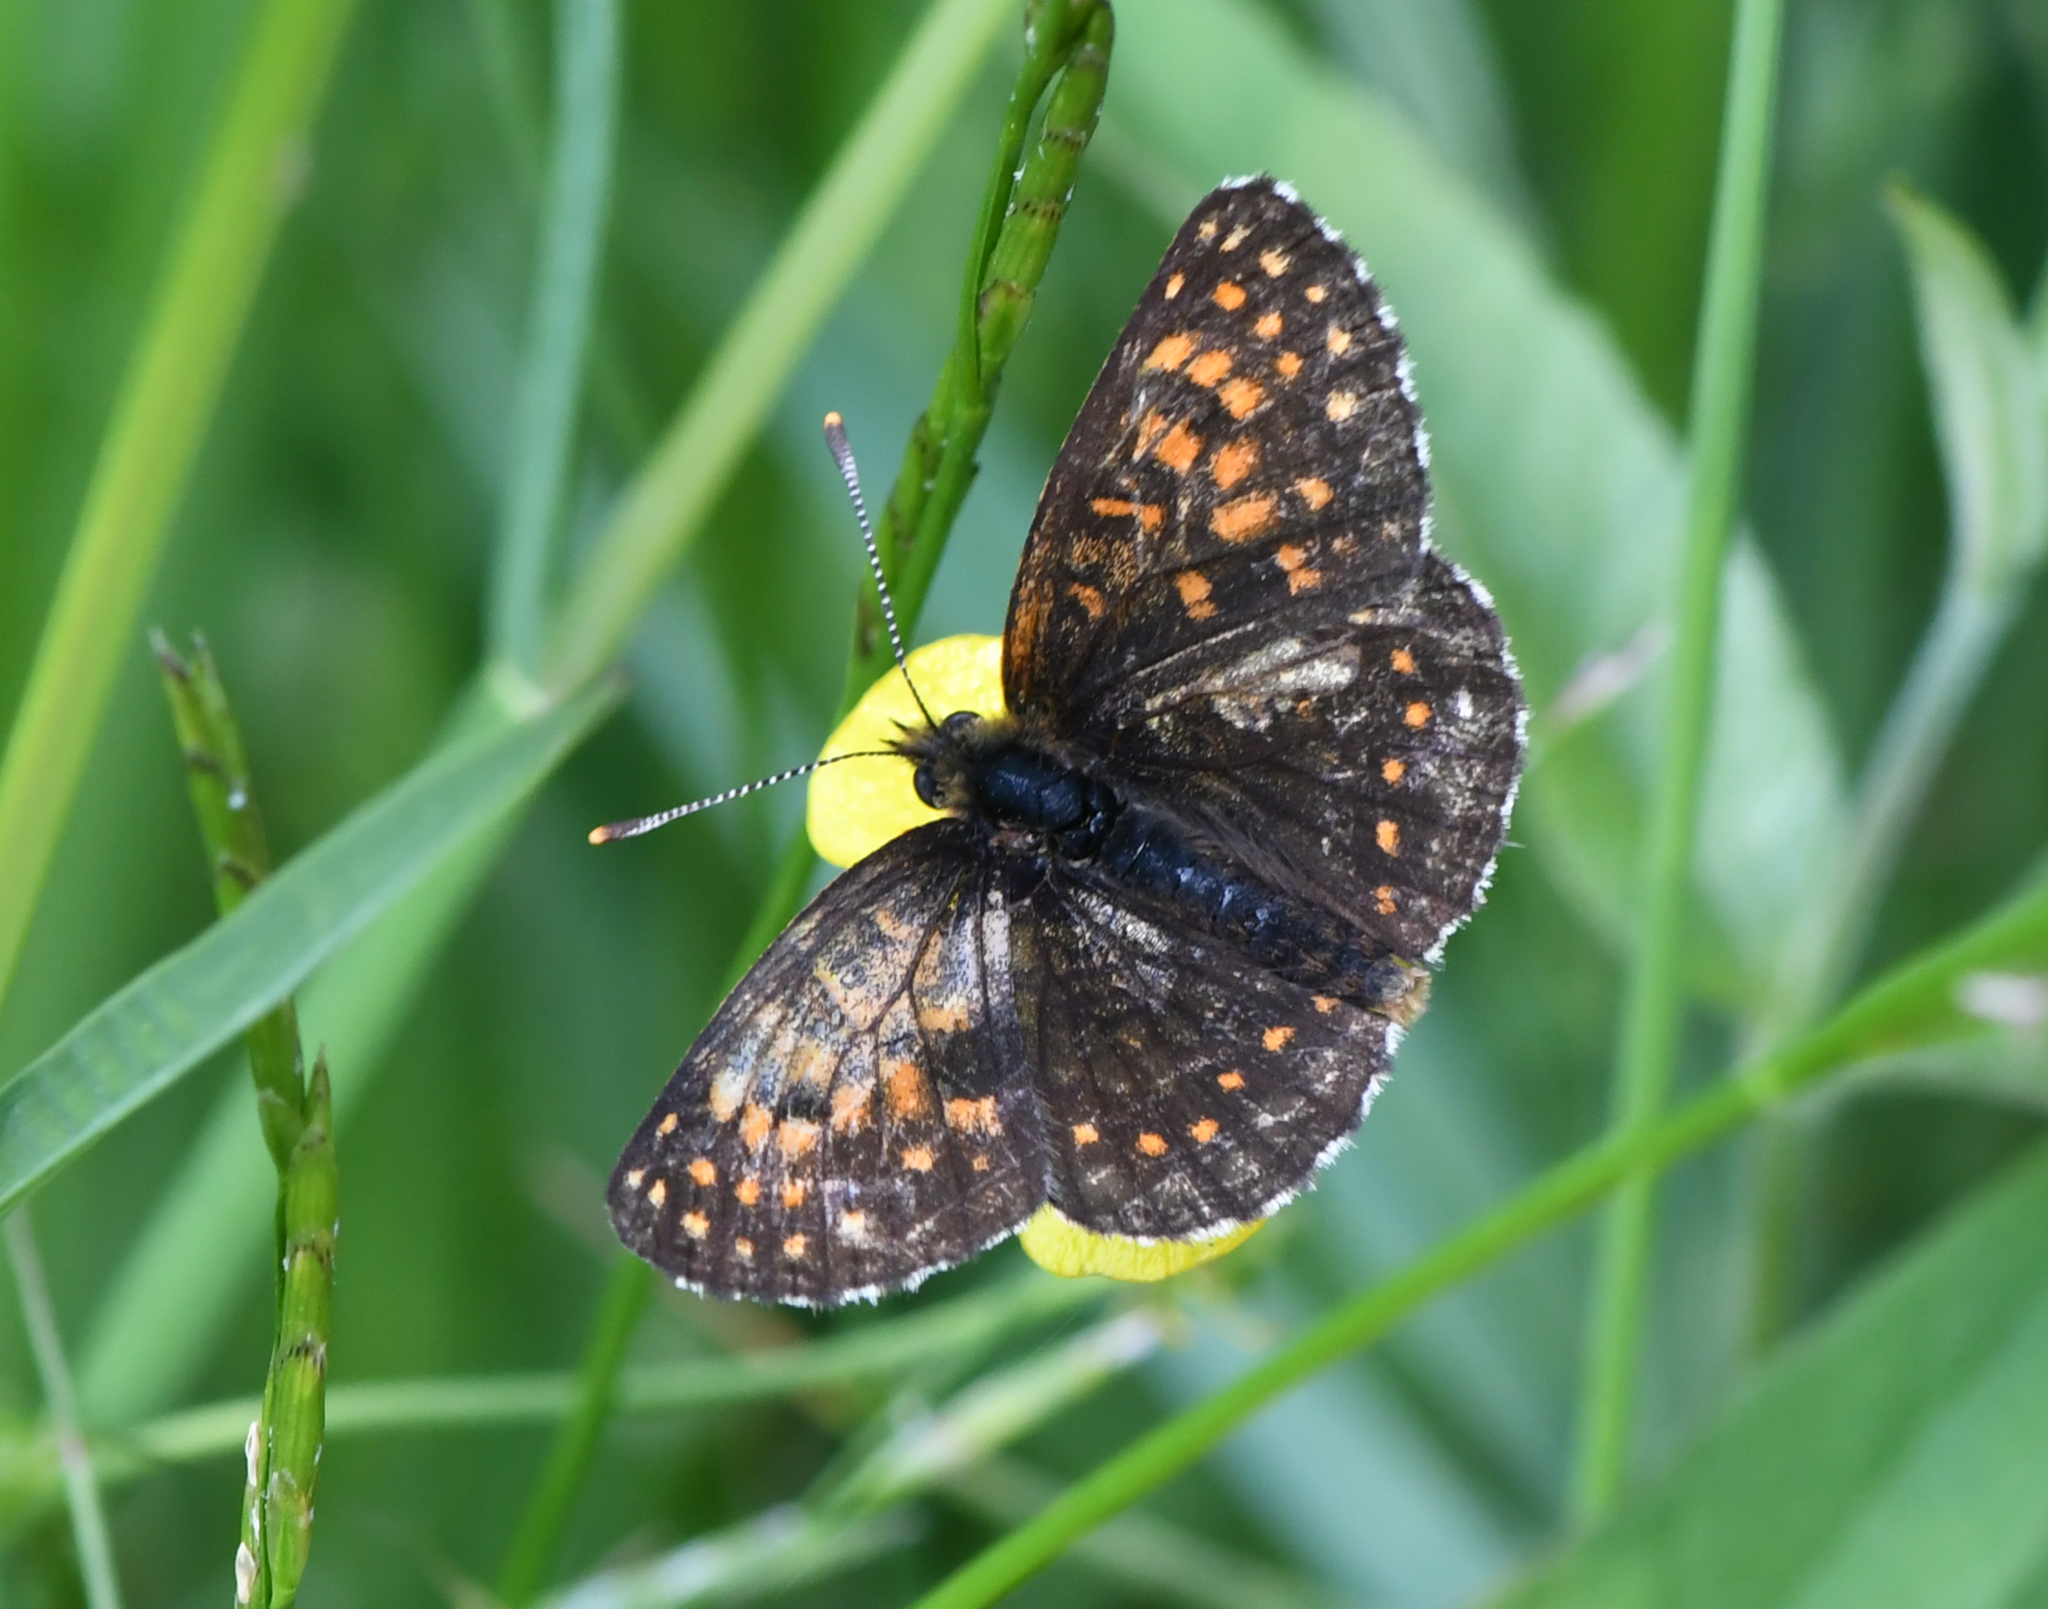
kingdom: Animalia
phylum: Arthropoda
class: Insecta
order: Lepidoptera
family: Nymphalidae
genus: Melitaea
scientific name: Melitaea diamina
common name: False heath fritillary
